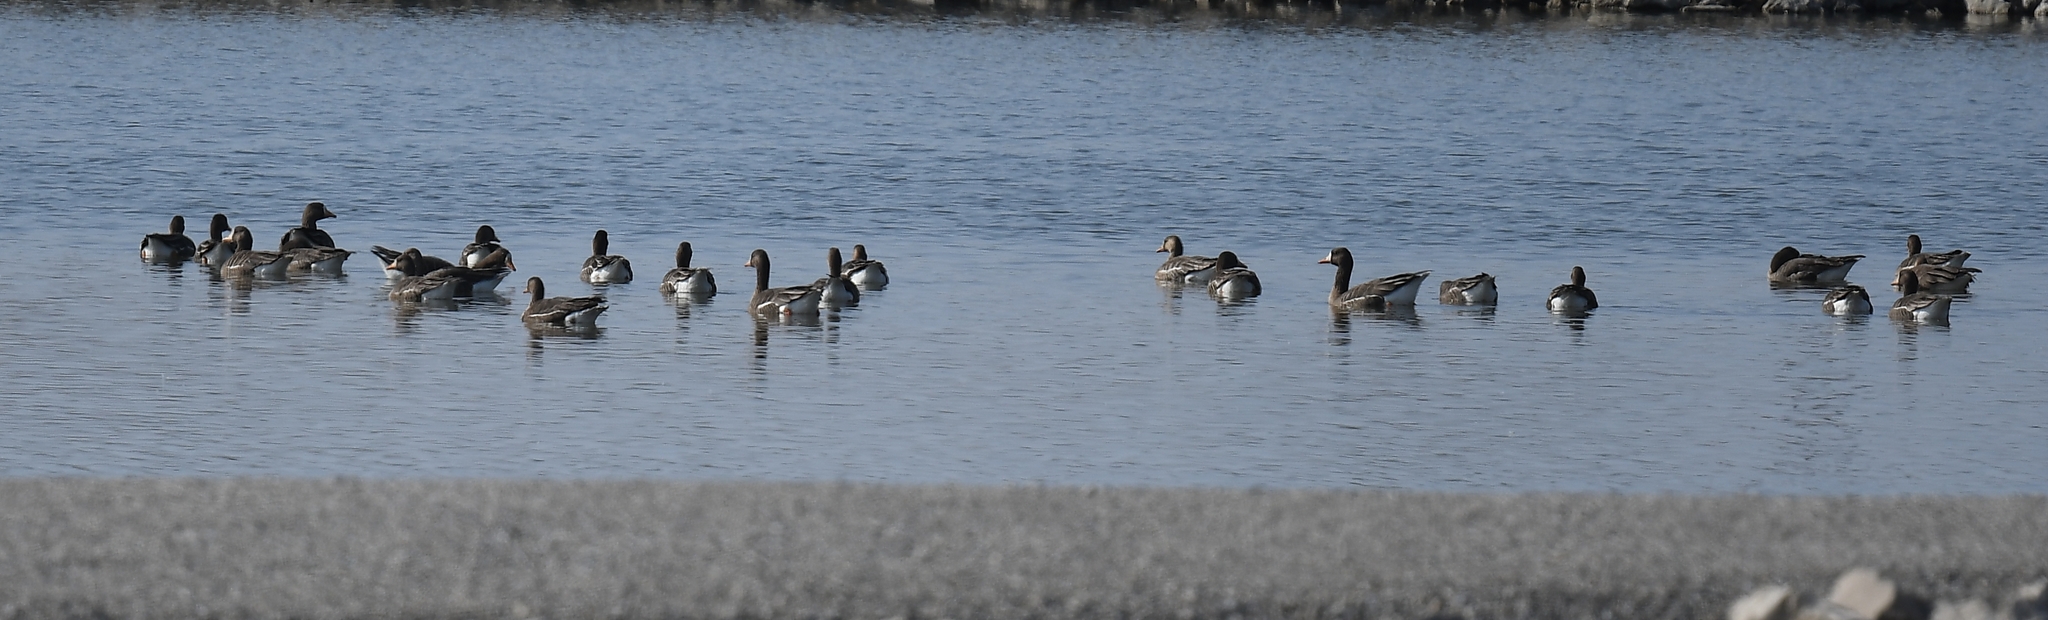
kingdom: Animalia
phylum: Chordata
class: Aves
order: Anseriformes
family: Anatidae
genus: Anser
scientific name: Anser albifrons
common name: Greater white-fronted goose
